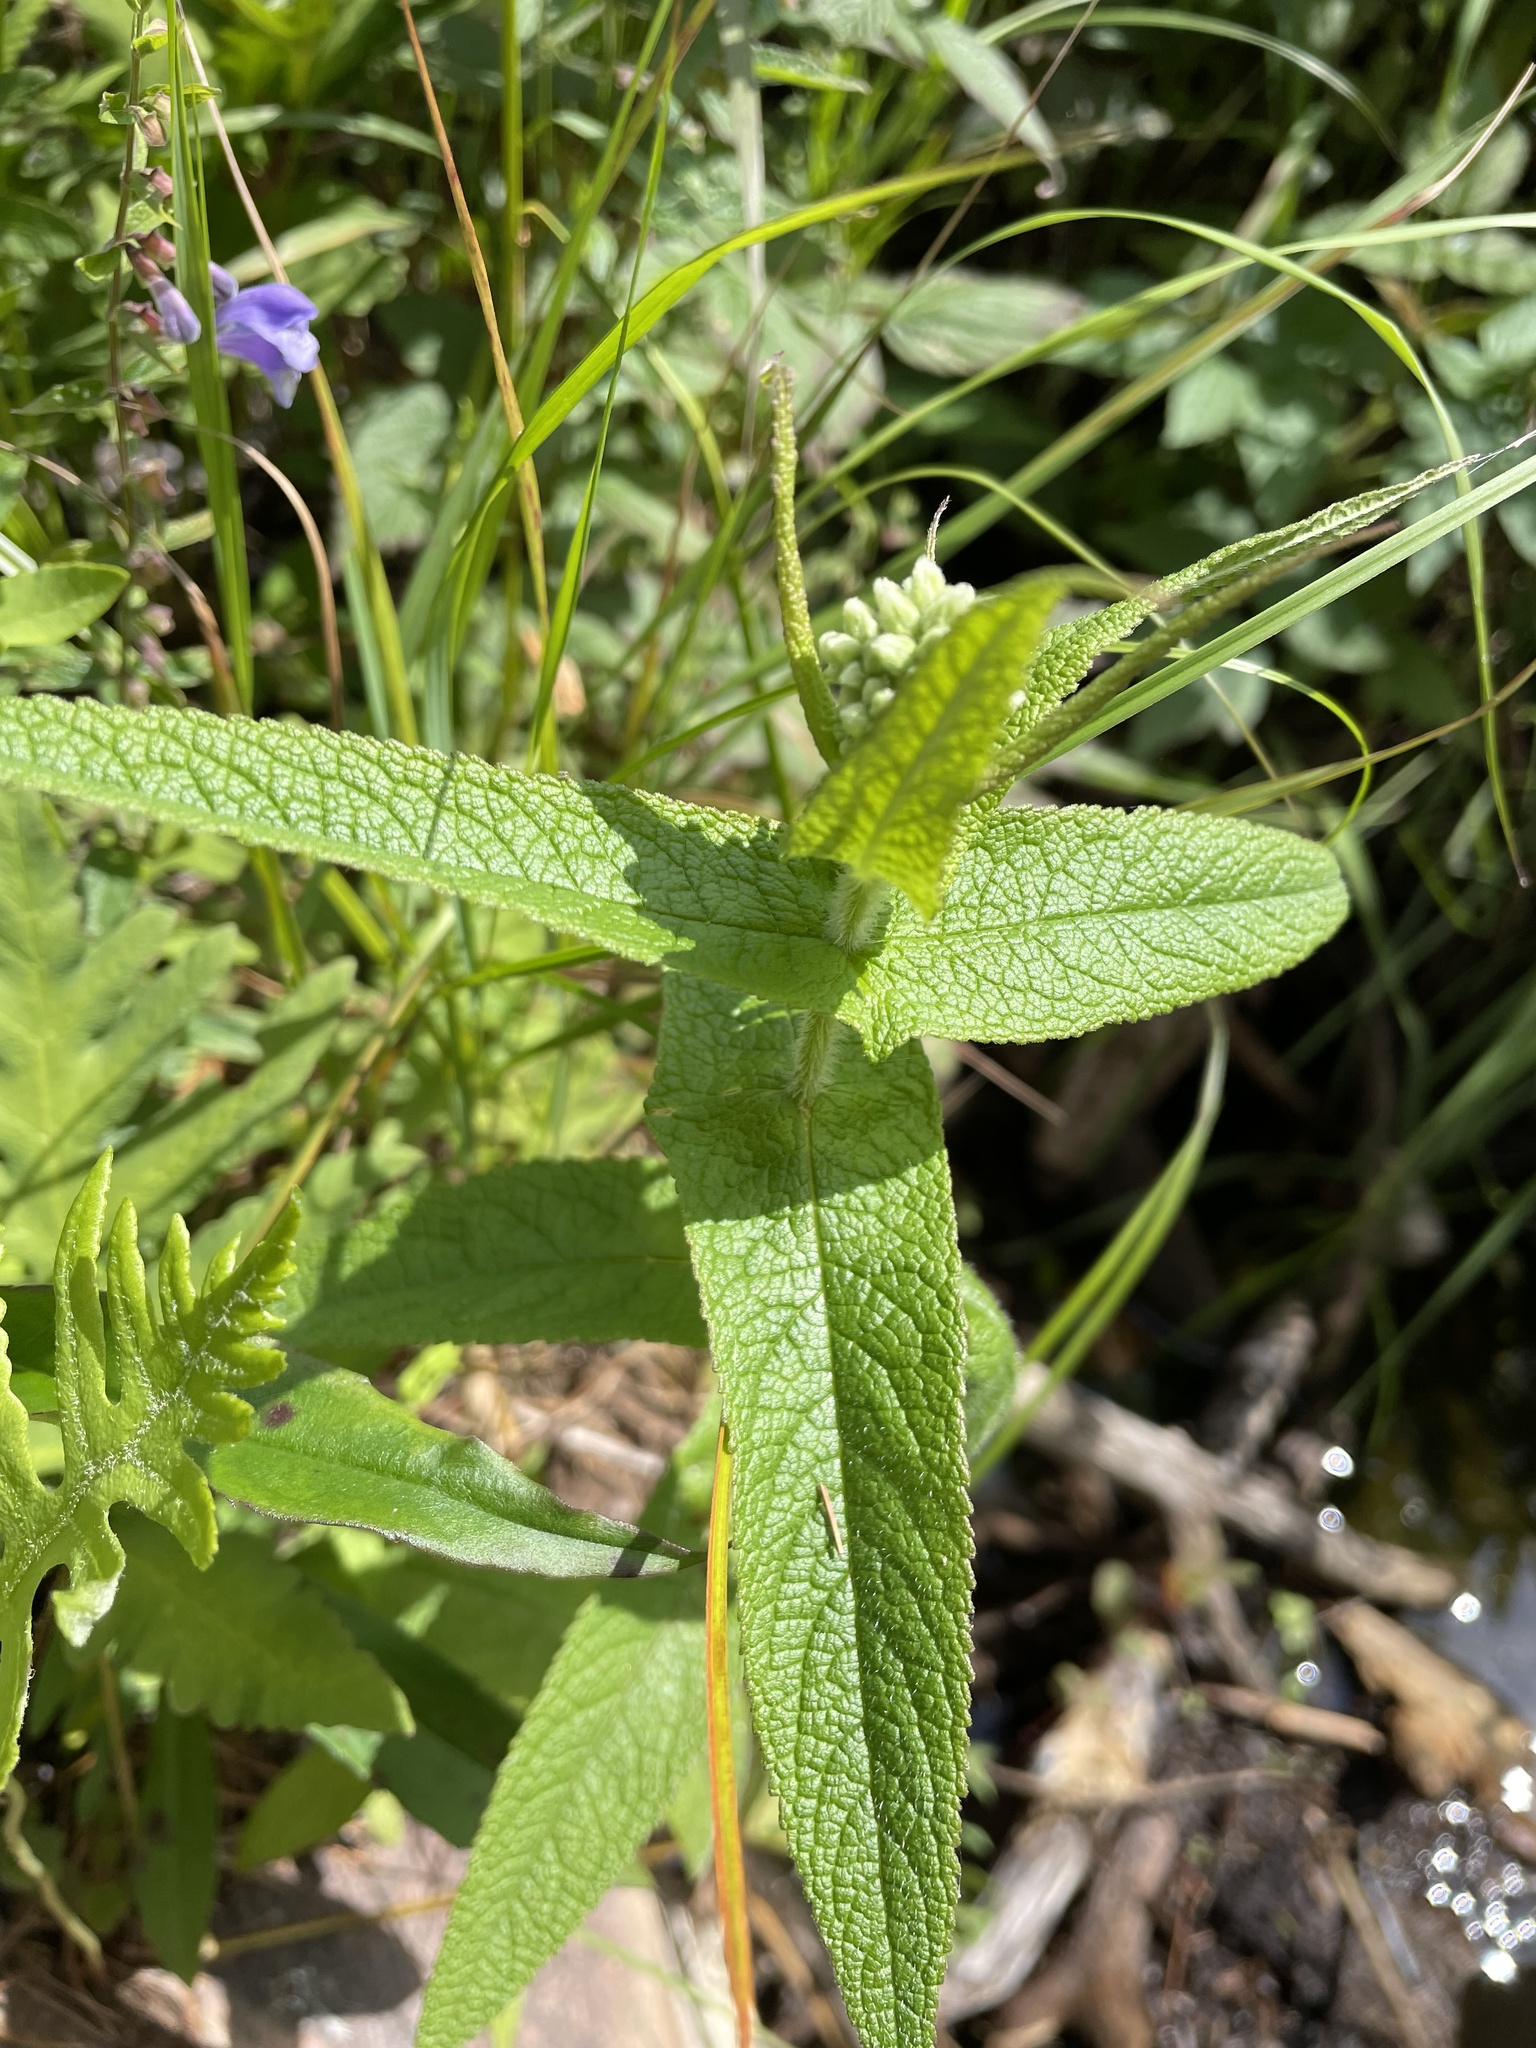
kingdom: Plantae
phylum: Tracheophyta
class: Magnoliopsida
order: Asterales
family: Asteraceae
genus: Eupatorium
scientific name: Eupatorium perfoliatum
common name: Boneset
